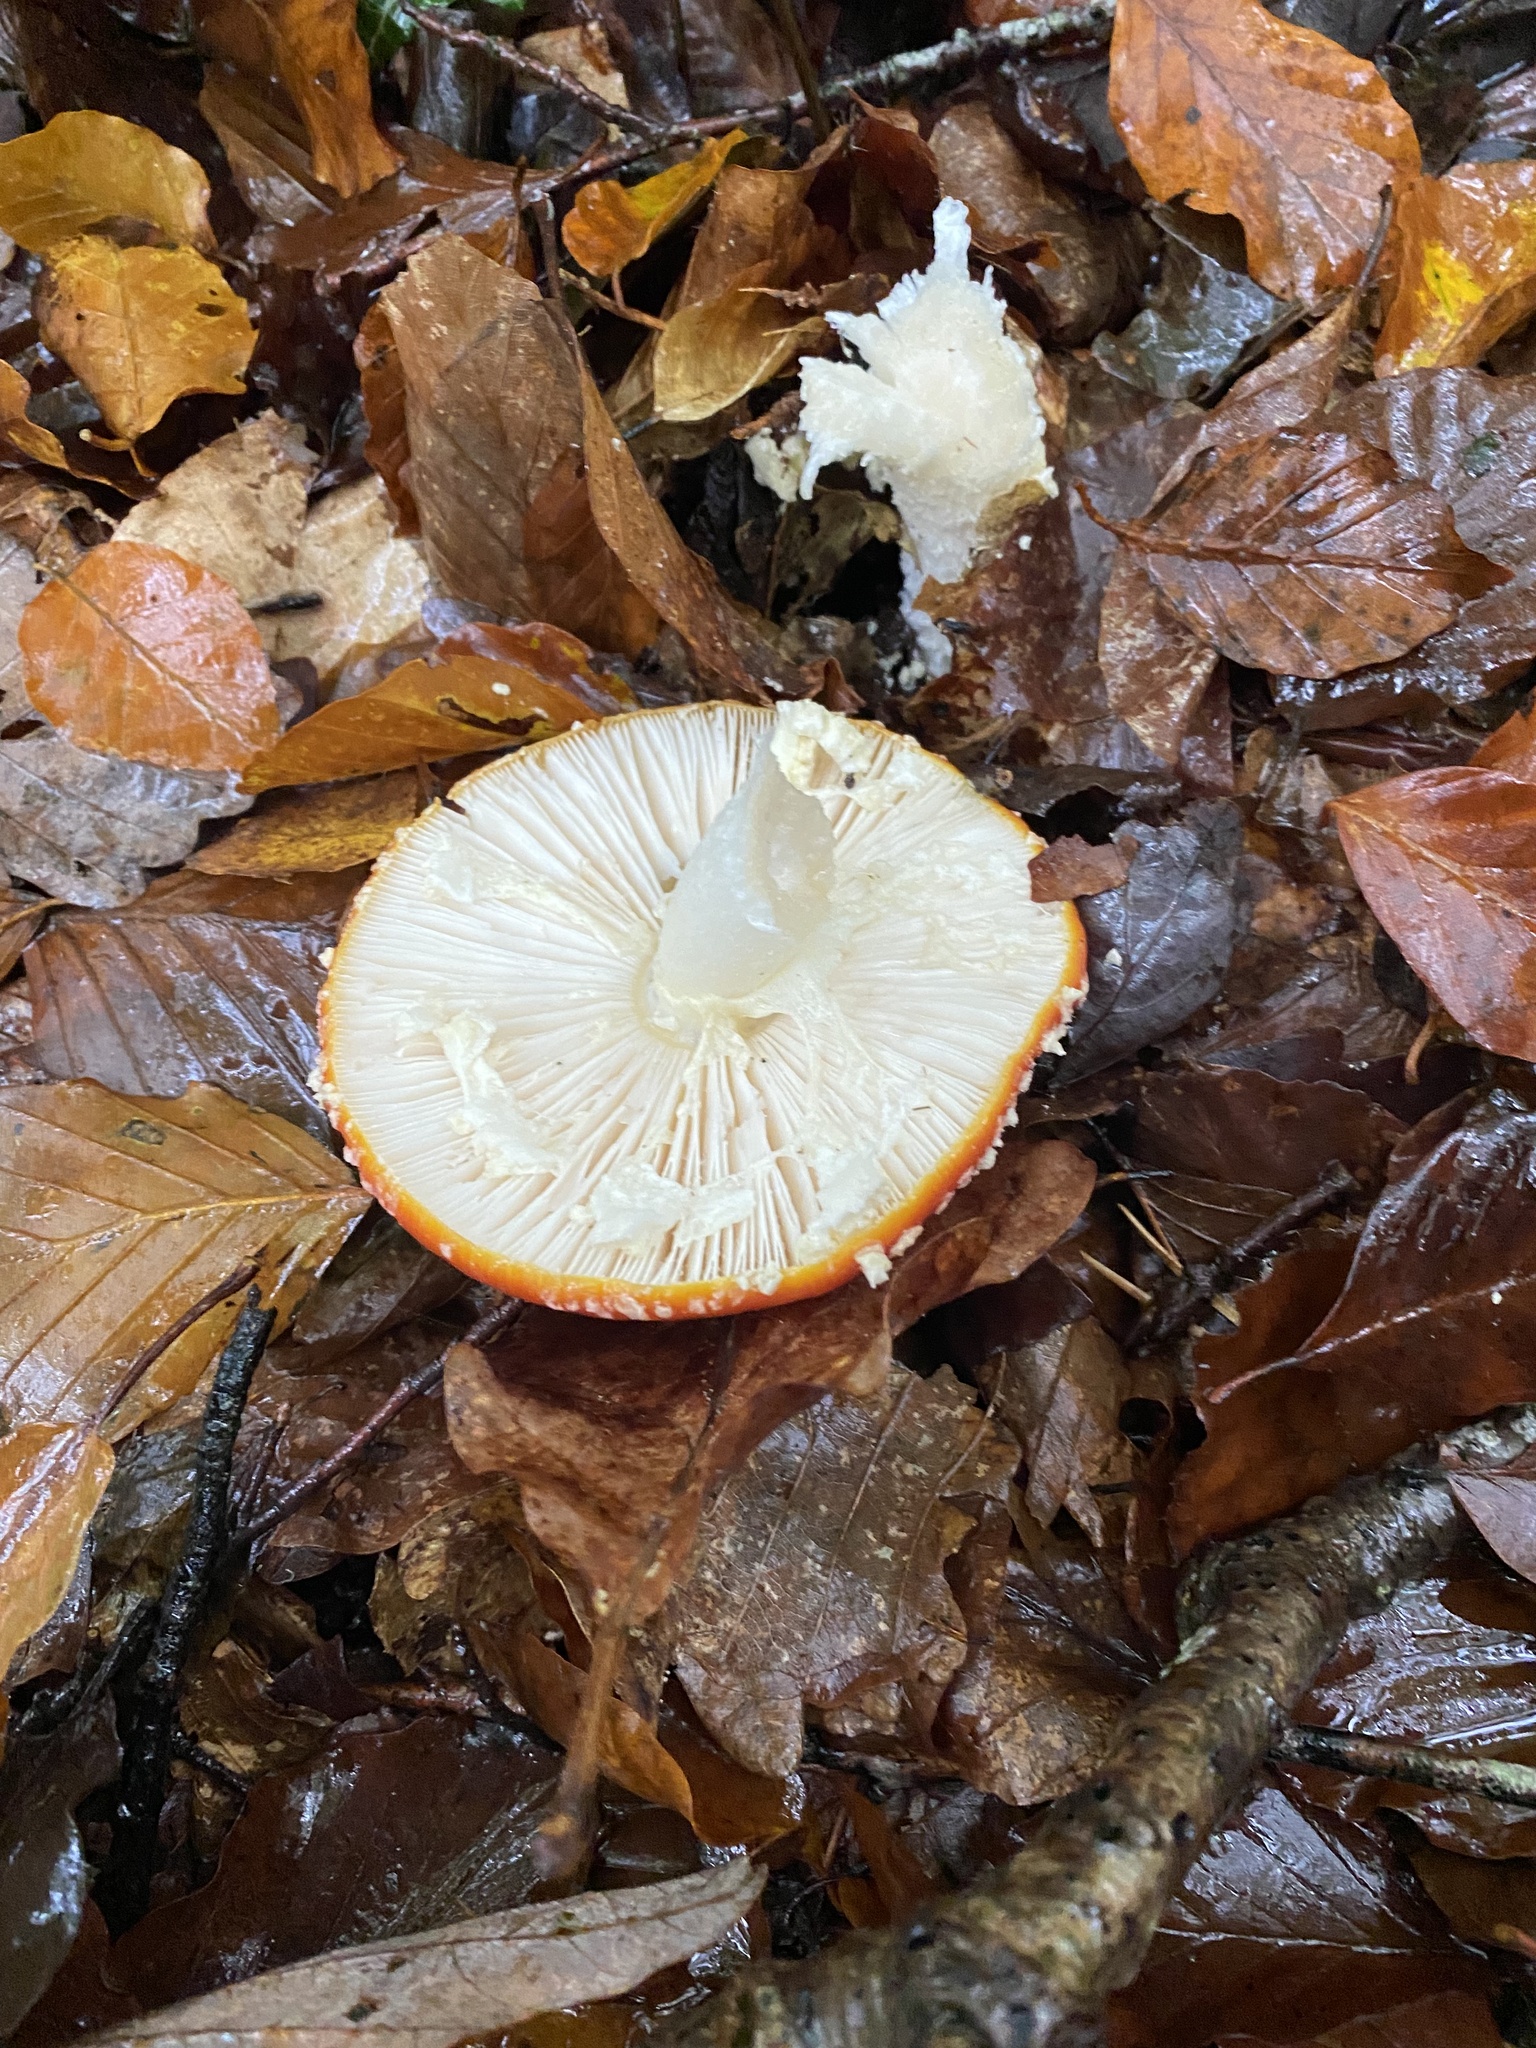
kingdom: Fungi
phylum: Basidiomycota
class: Agaricomycetes
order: Agaricales
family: Amanitaceae
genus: Amanita
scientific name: Amanita muscaria
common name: Fly agaric
